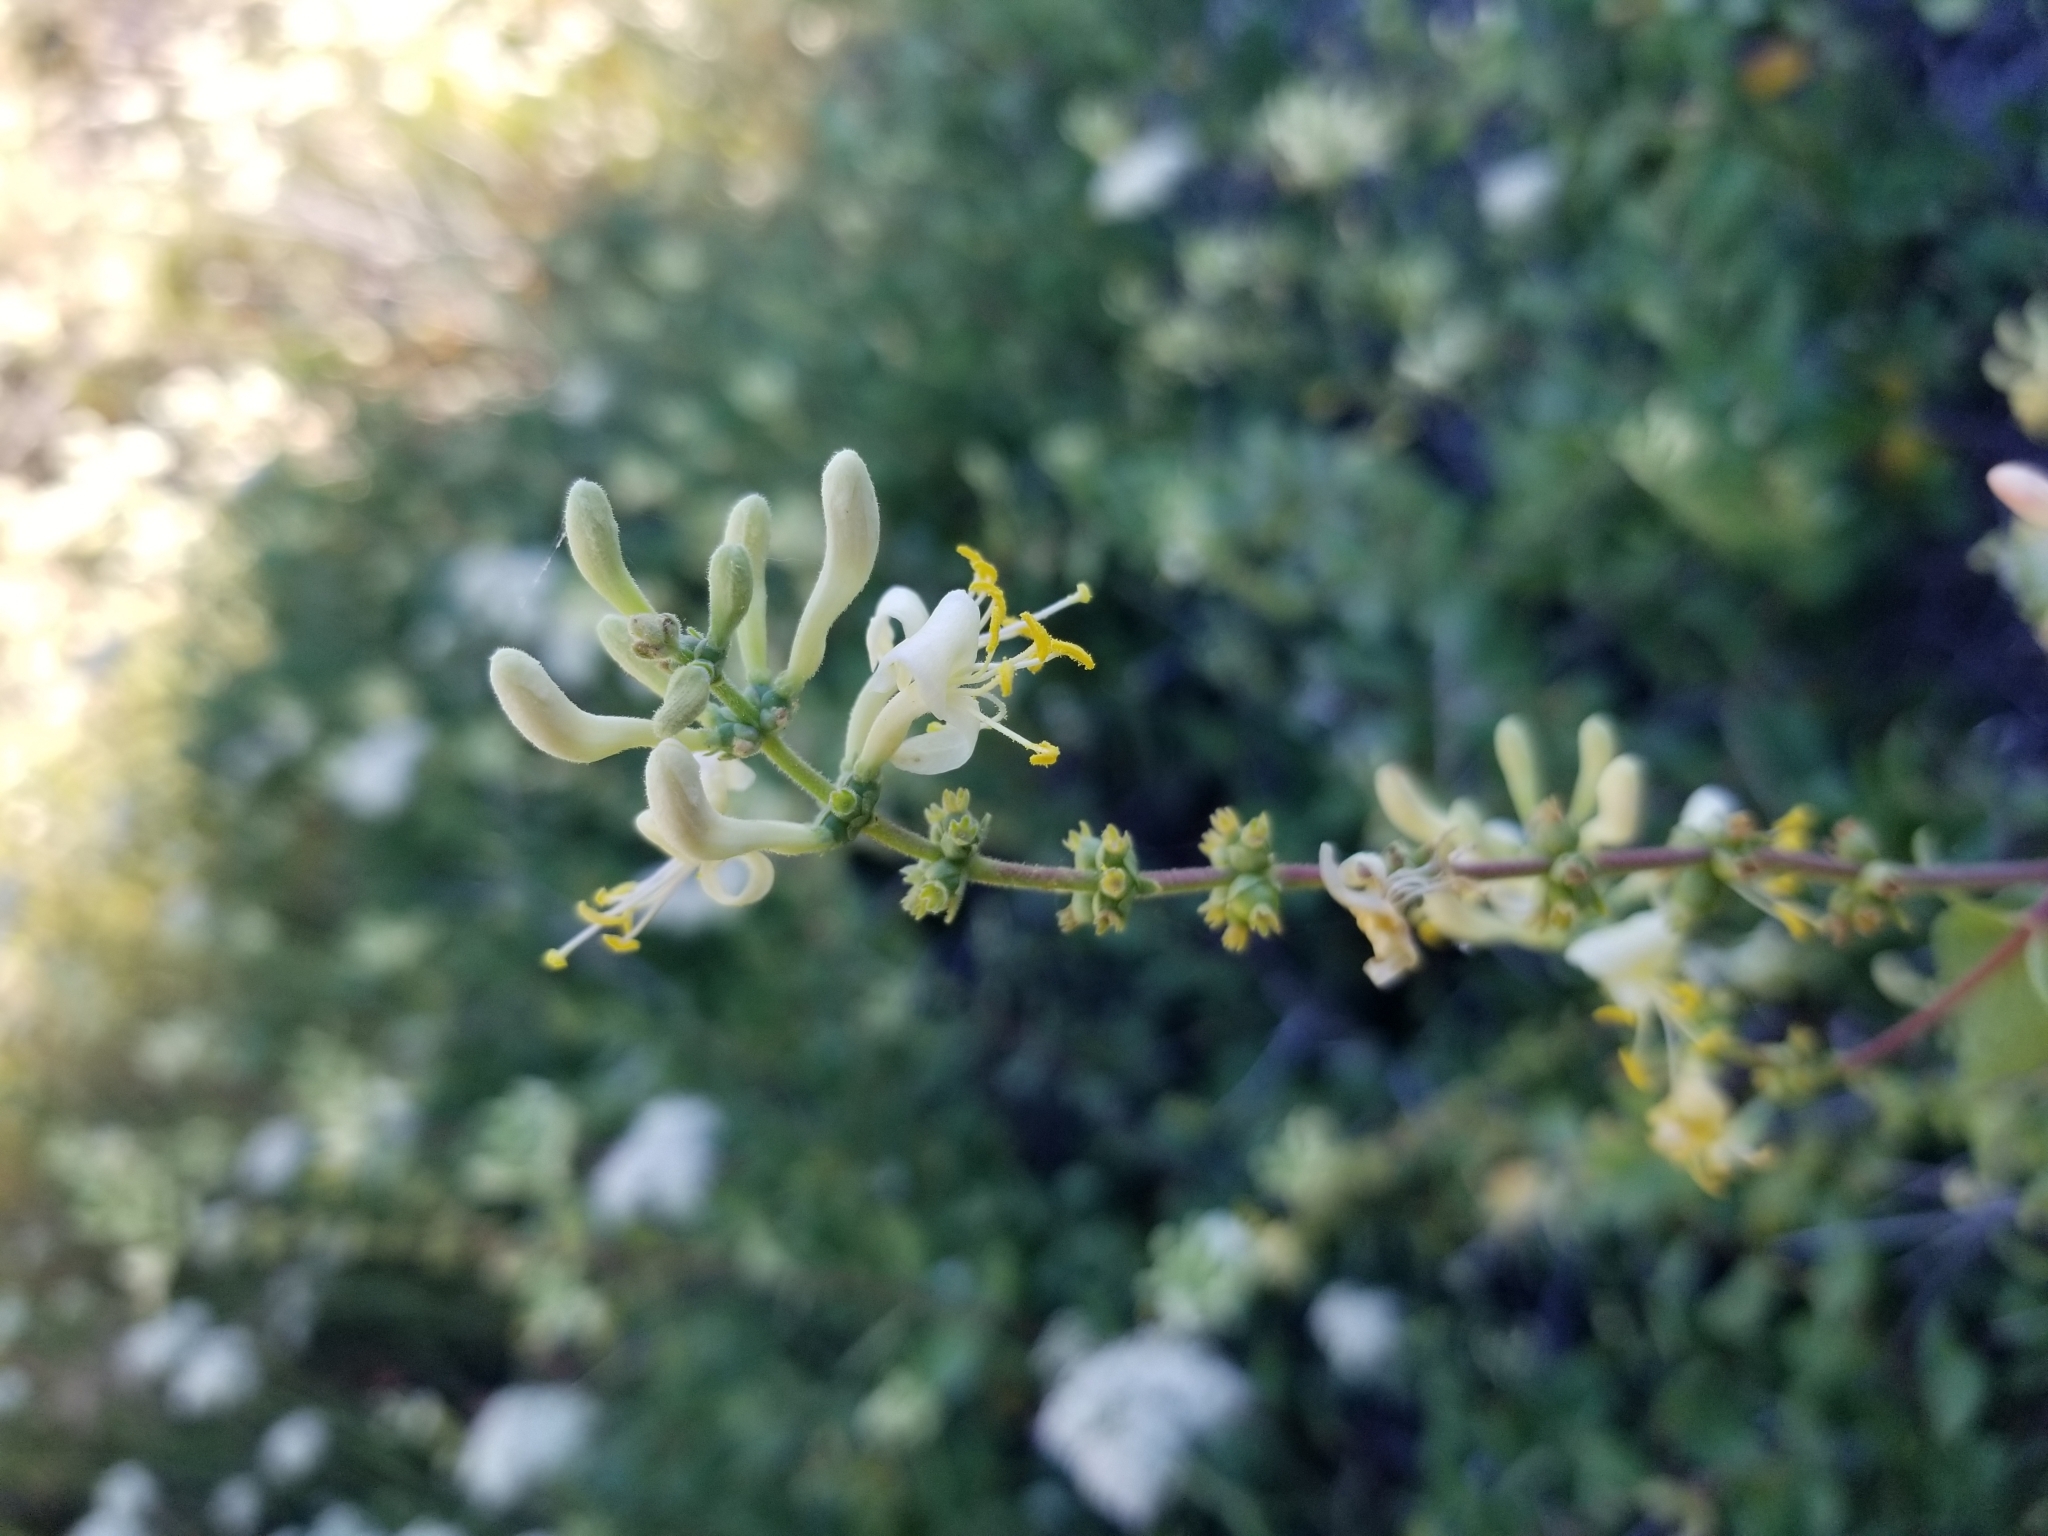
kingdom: Plantae
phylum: Tracheophyta
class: Magnoliopsida
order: Dipsacales
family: Caprifoliaceae
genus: Lonicera
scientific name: Lonicera subspicata
